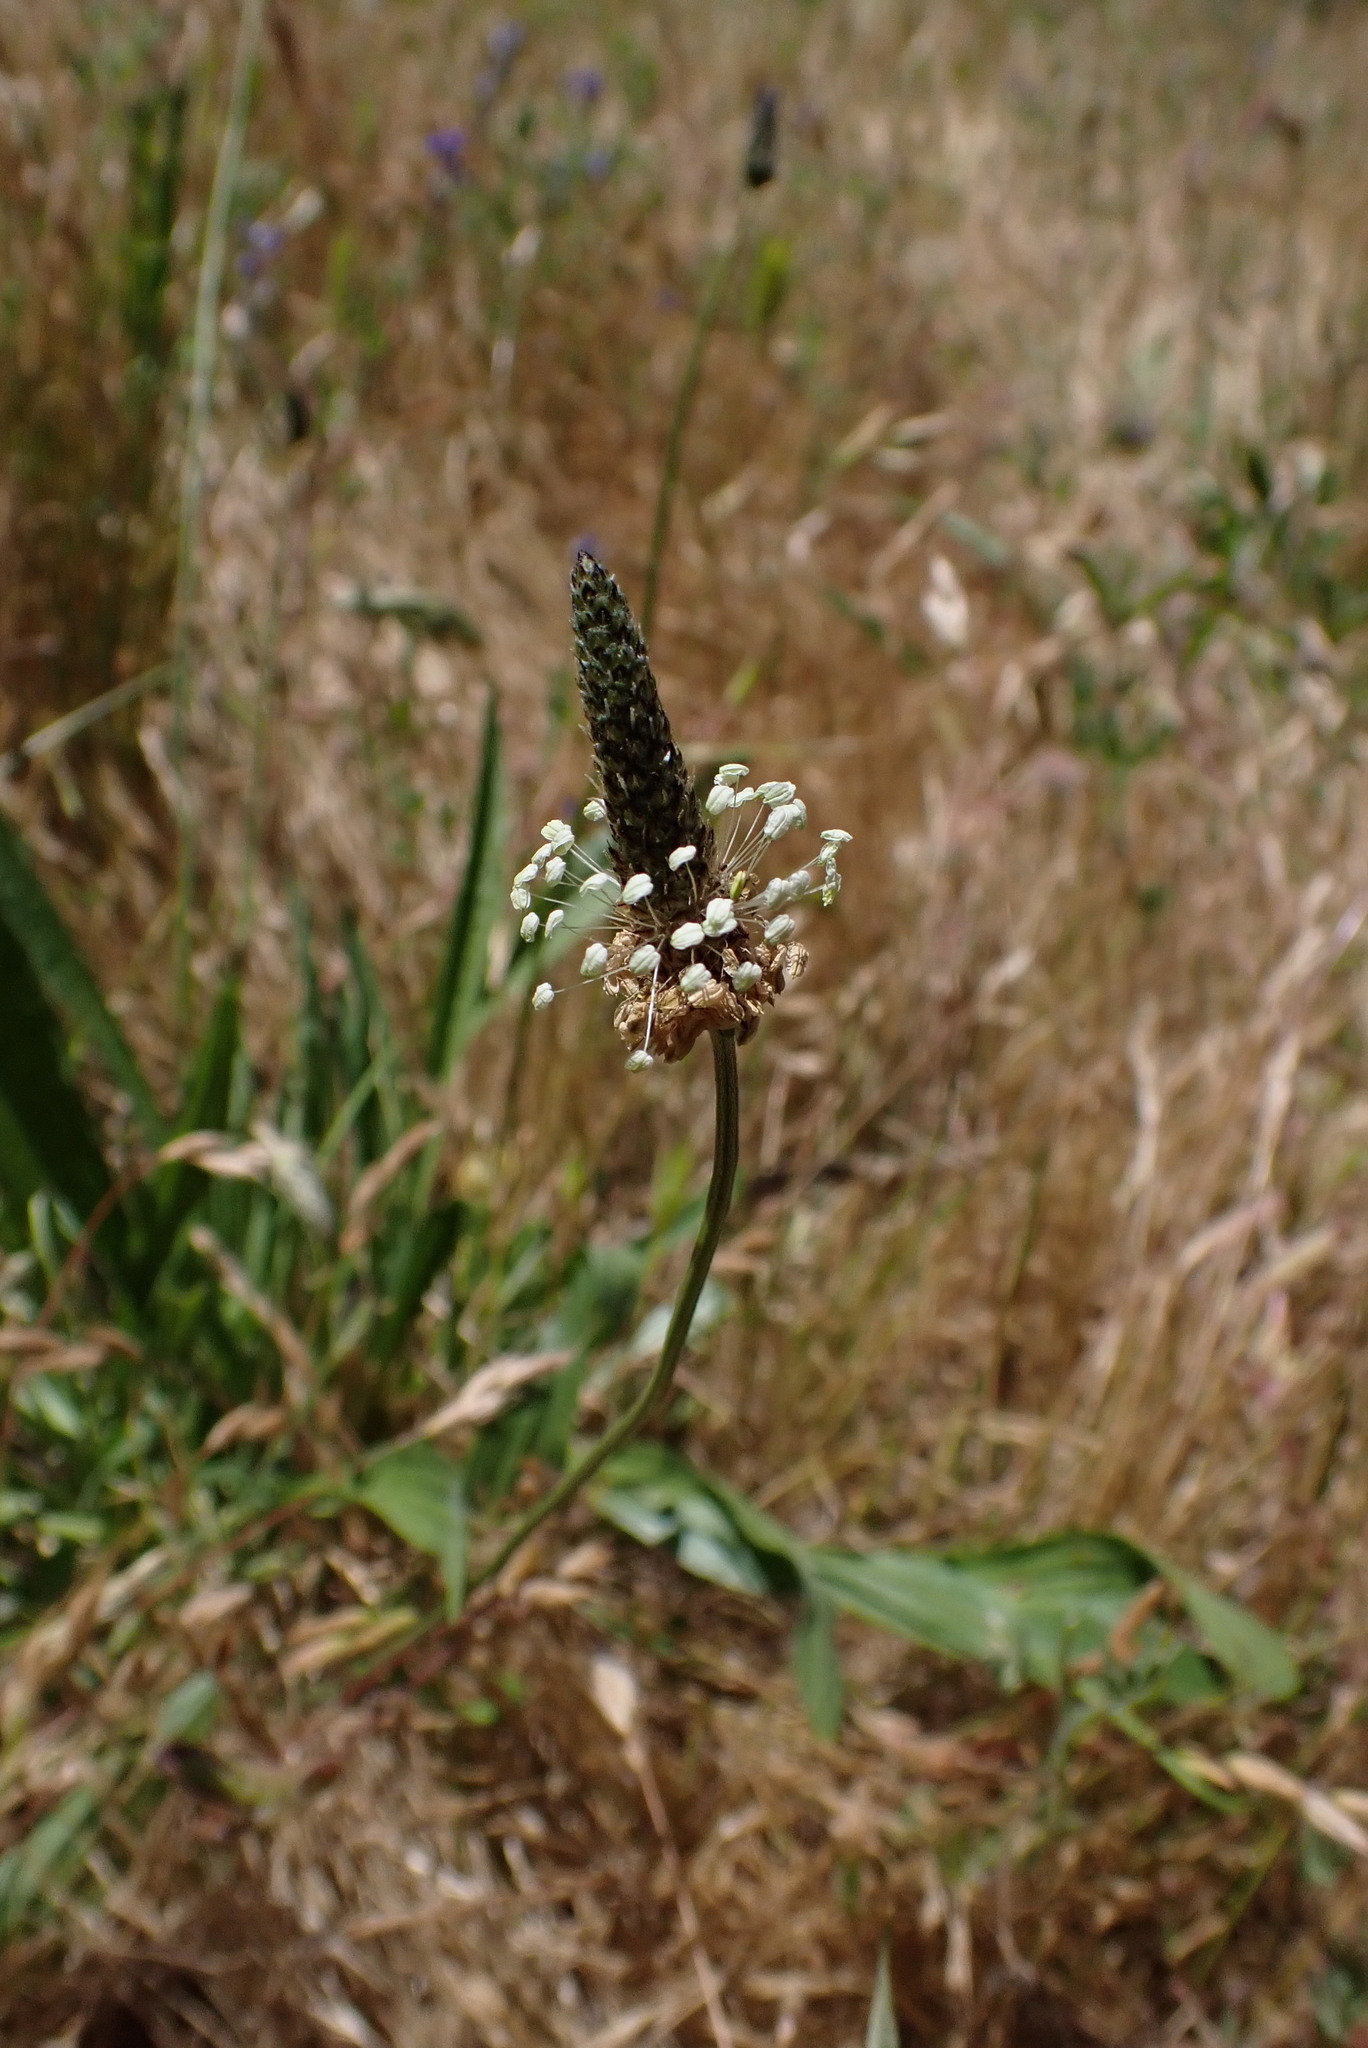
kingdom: Plantae
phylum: Tracheophyta
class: Magnoliopsida
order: Lamiales
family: Plantaginaceae
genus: Plantago
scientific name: Plantago lanceolata
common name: Ribwort plantain
